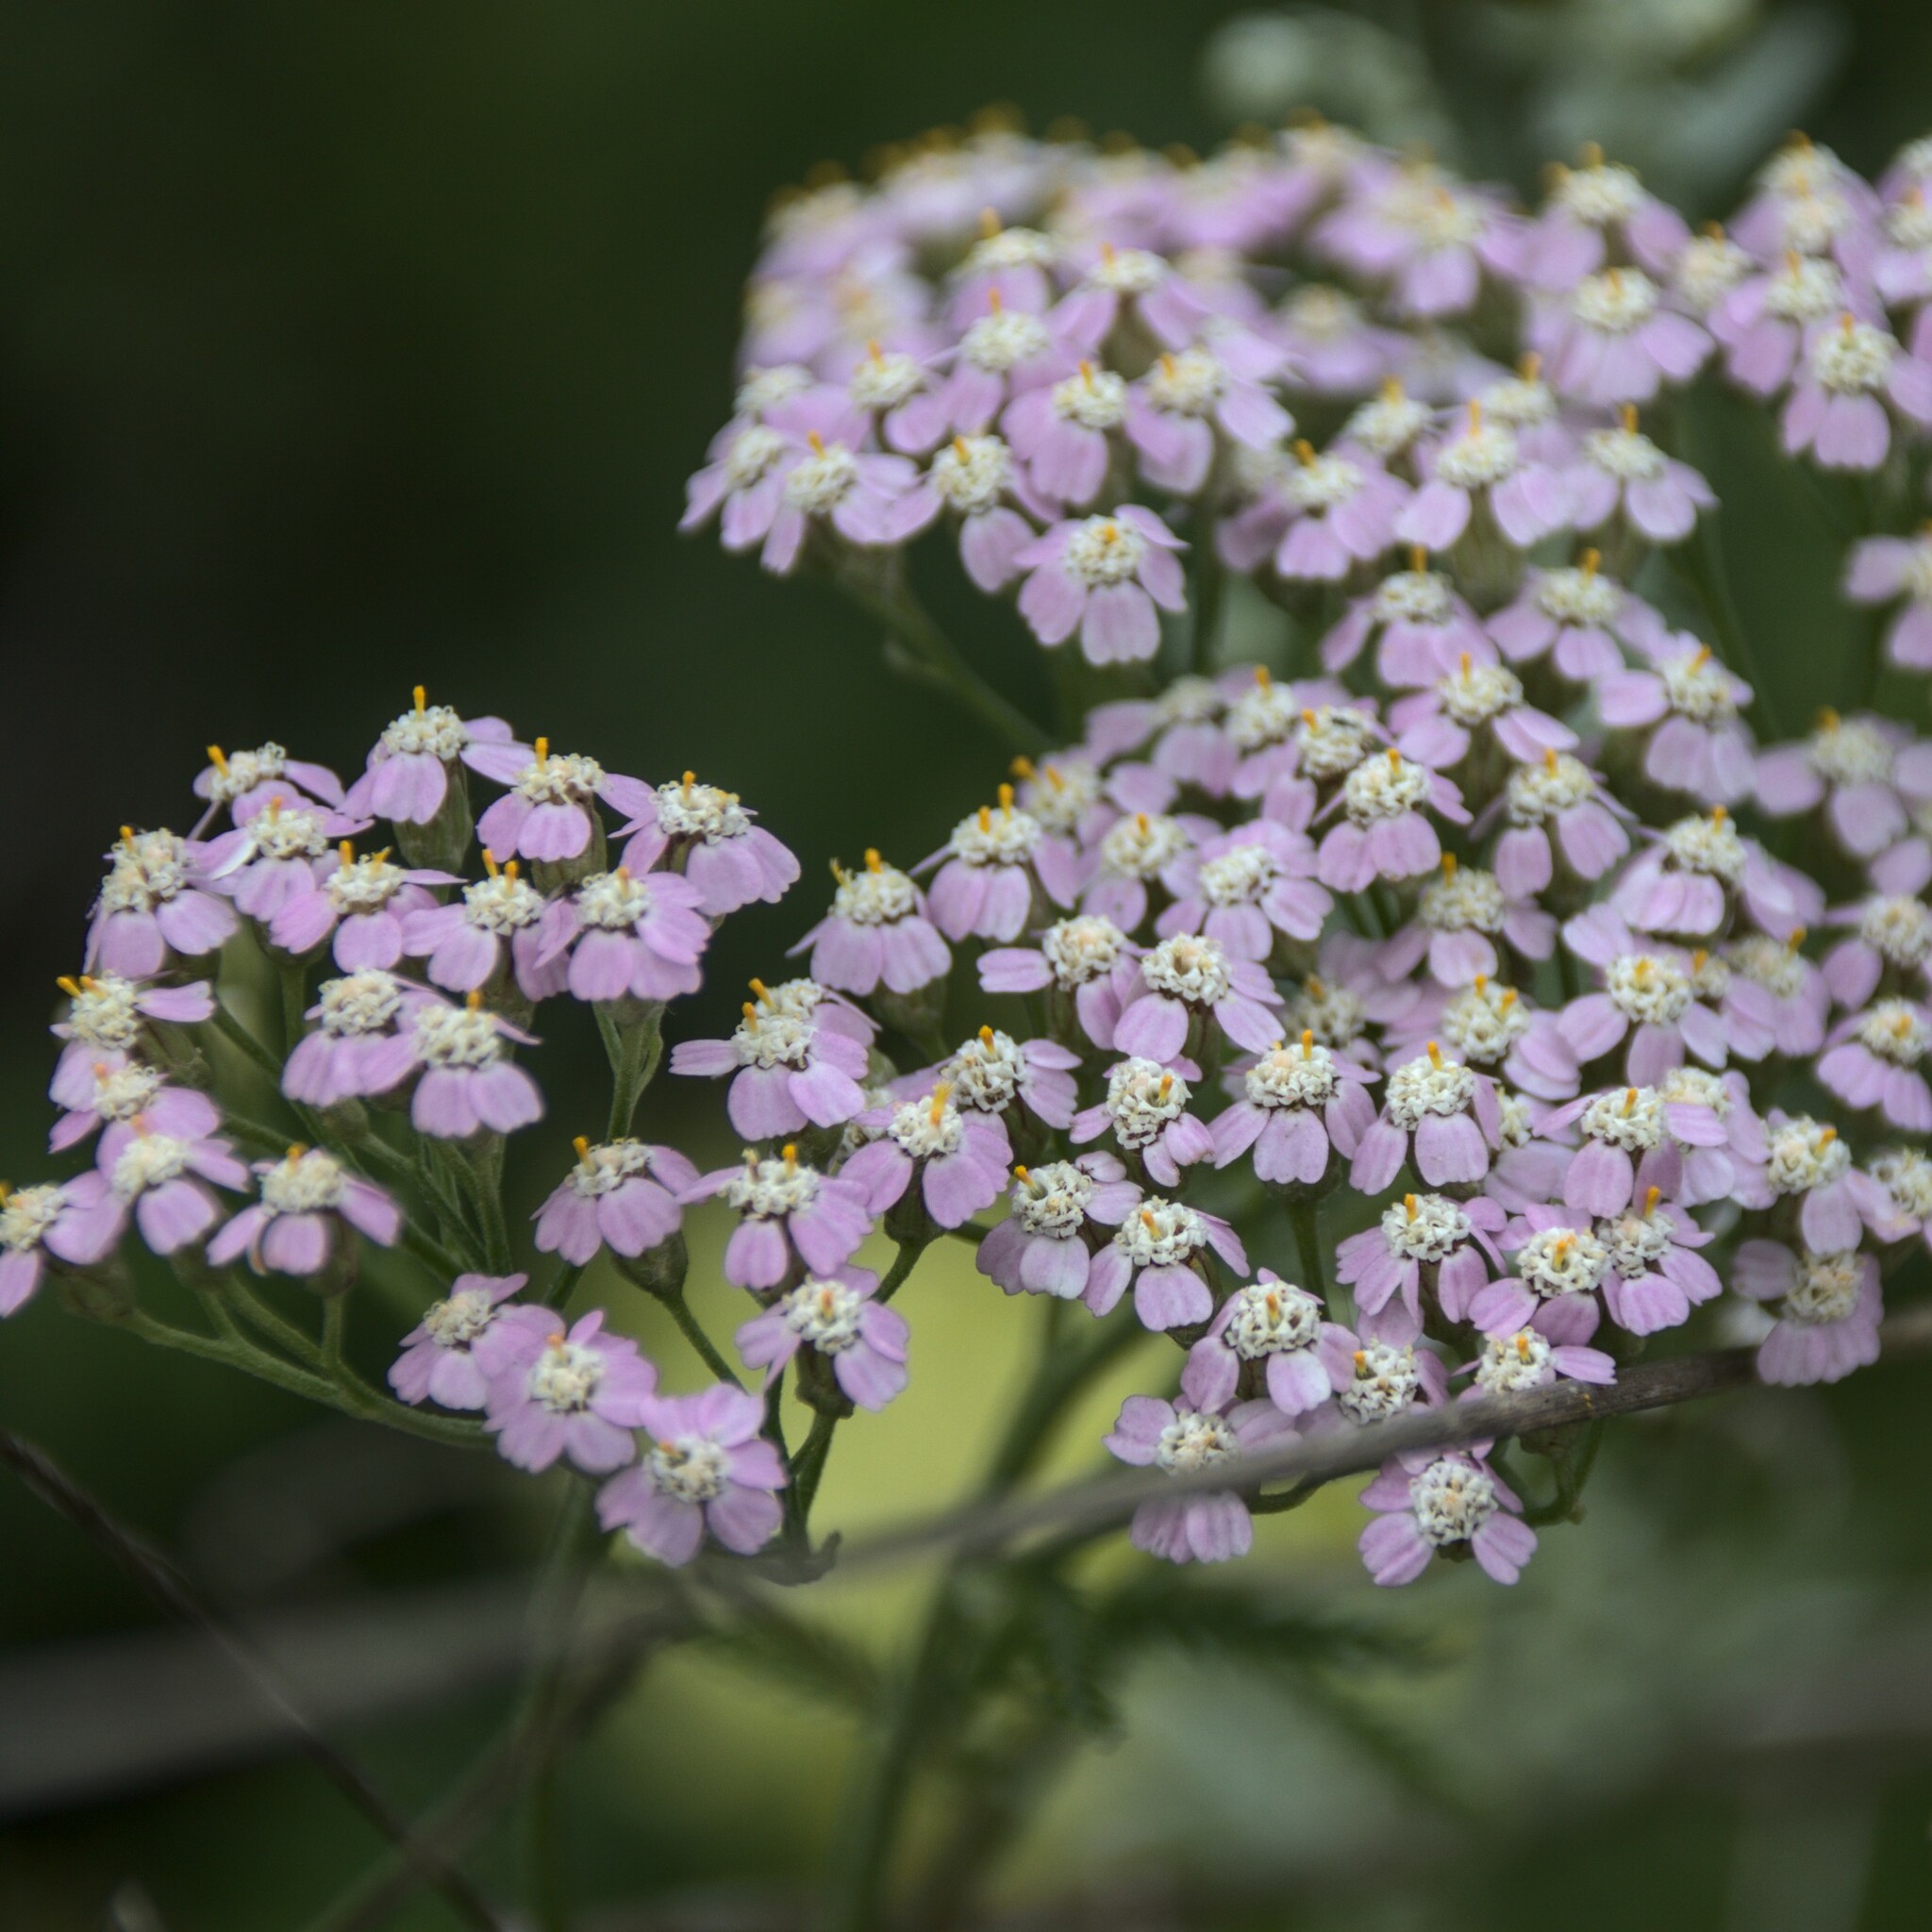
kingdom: Plantae
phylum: Tracheophyta
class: Magnoliopsida
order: Asterales
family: Asteraceae
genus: Achillea
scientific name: Achillea asiatica
